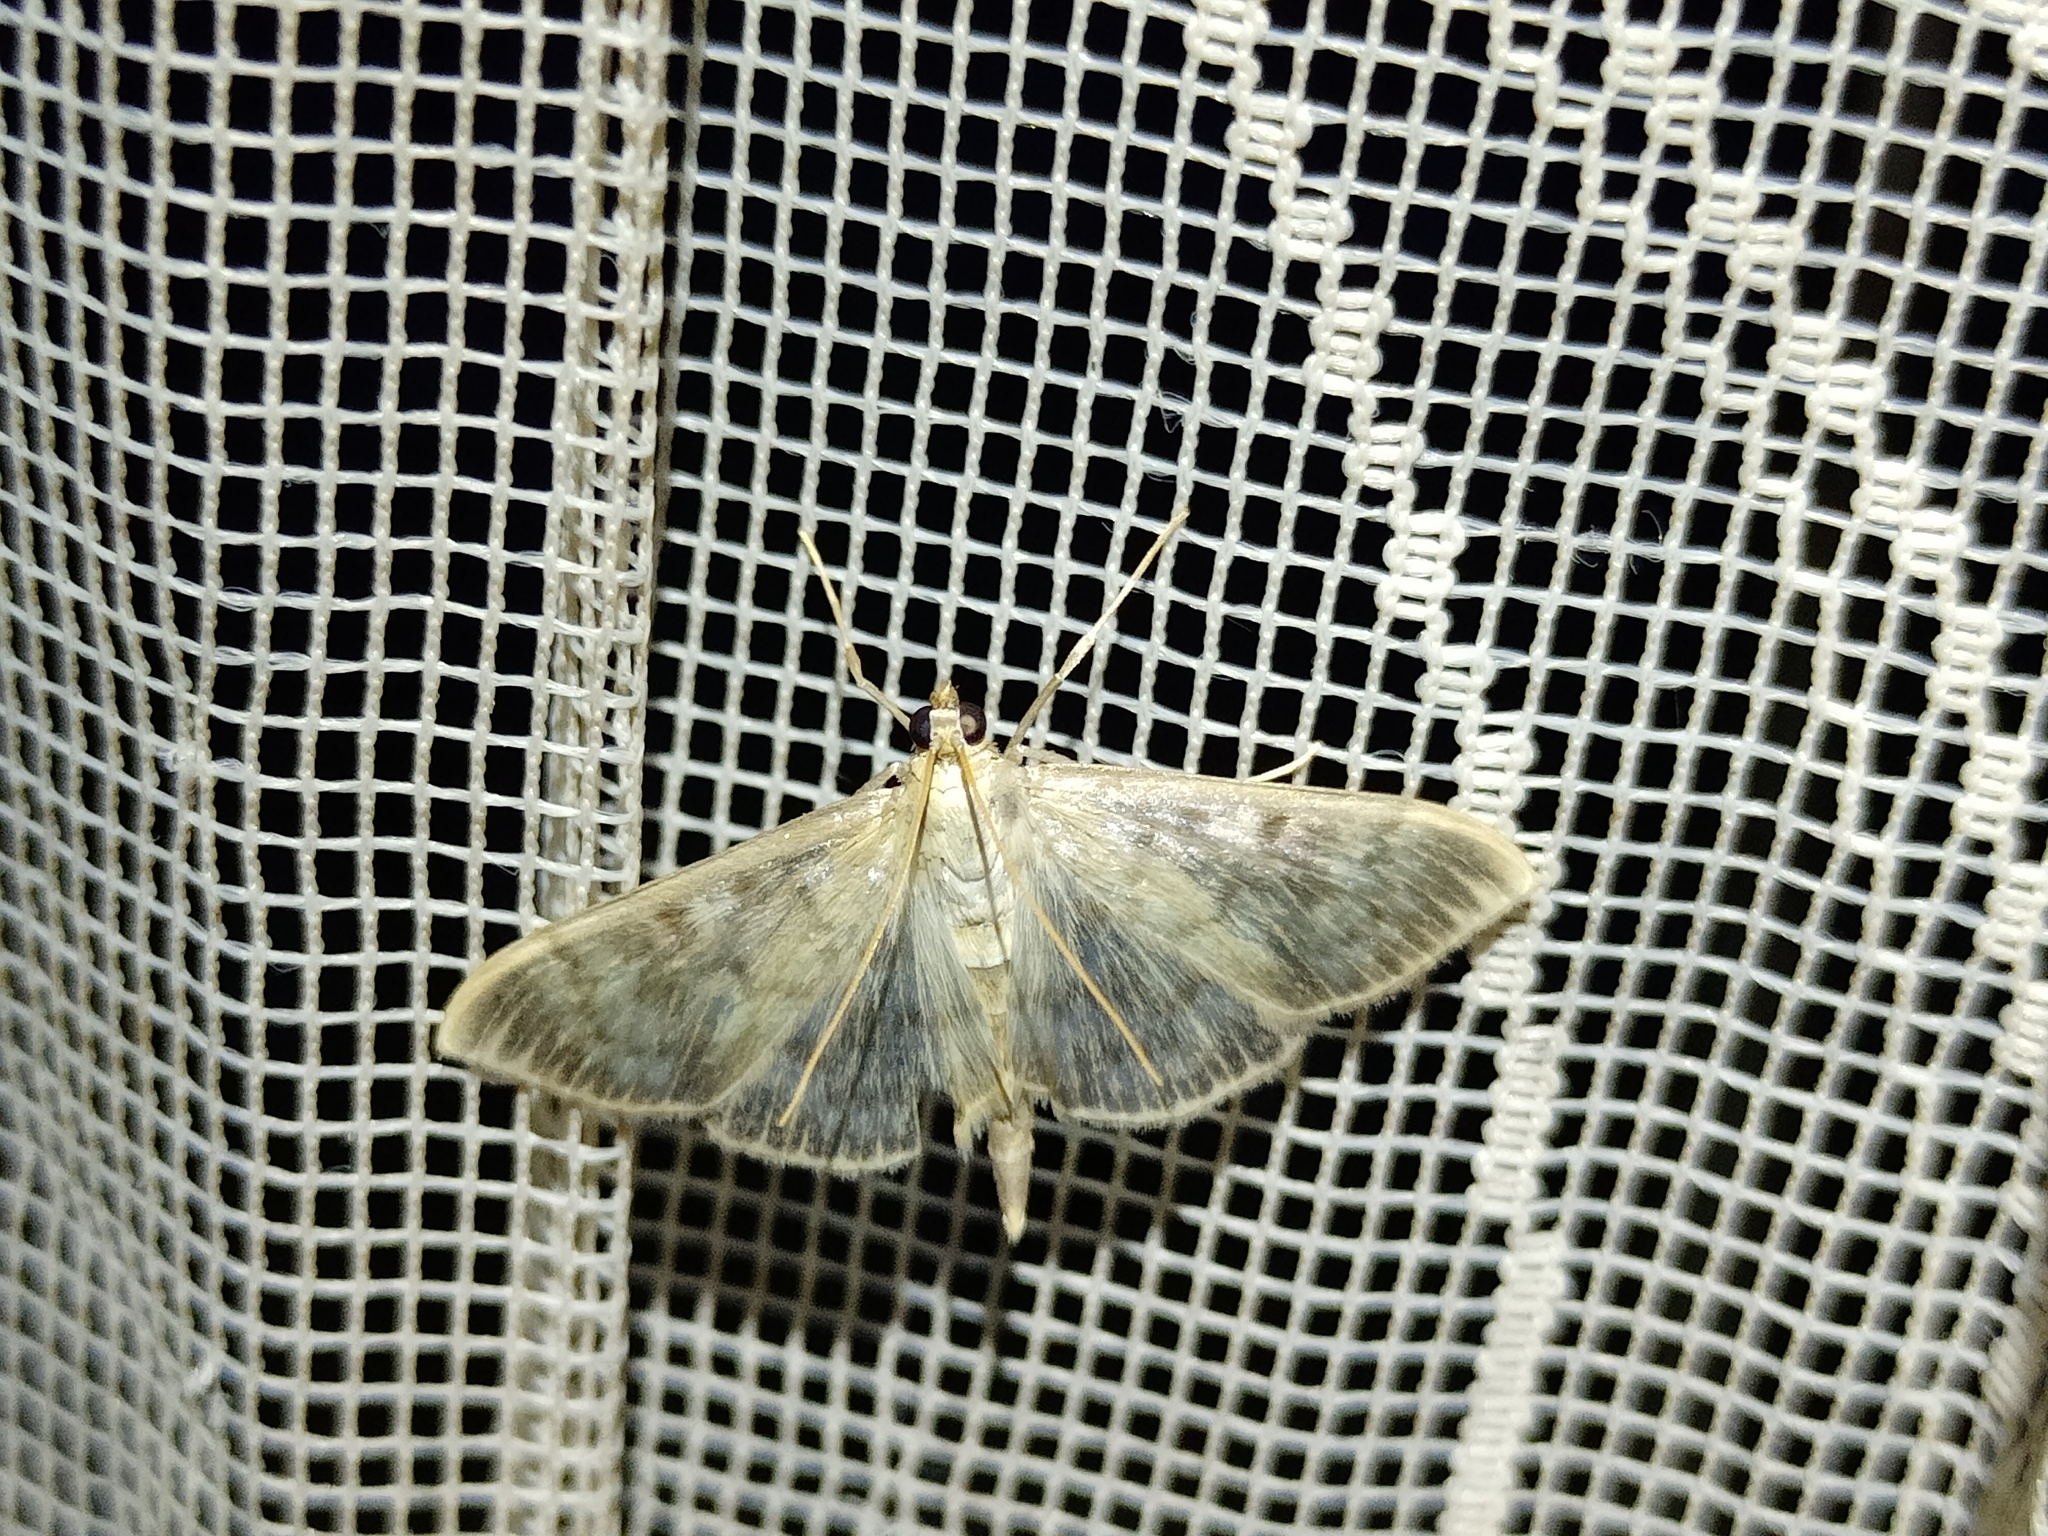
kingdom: Animalia
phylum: Arthropoda
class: Insecta
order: Lepidoptera
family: Crambidae
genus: Patania
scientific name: Patania ruralis
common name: Mother of pearl
